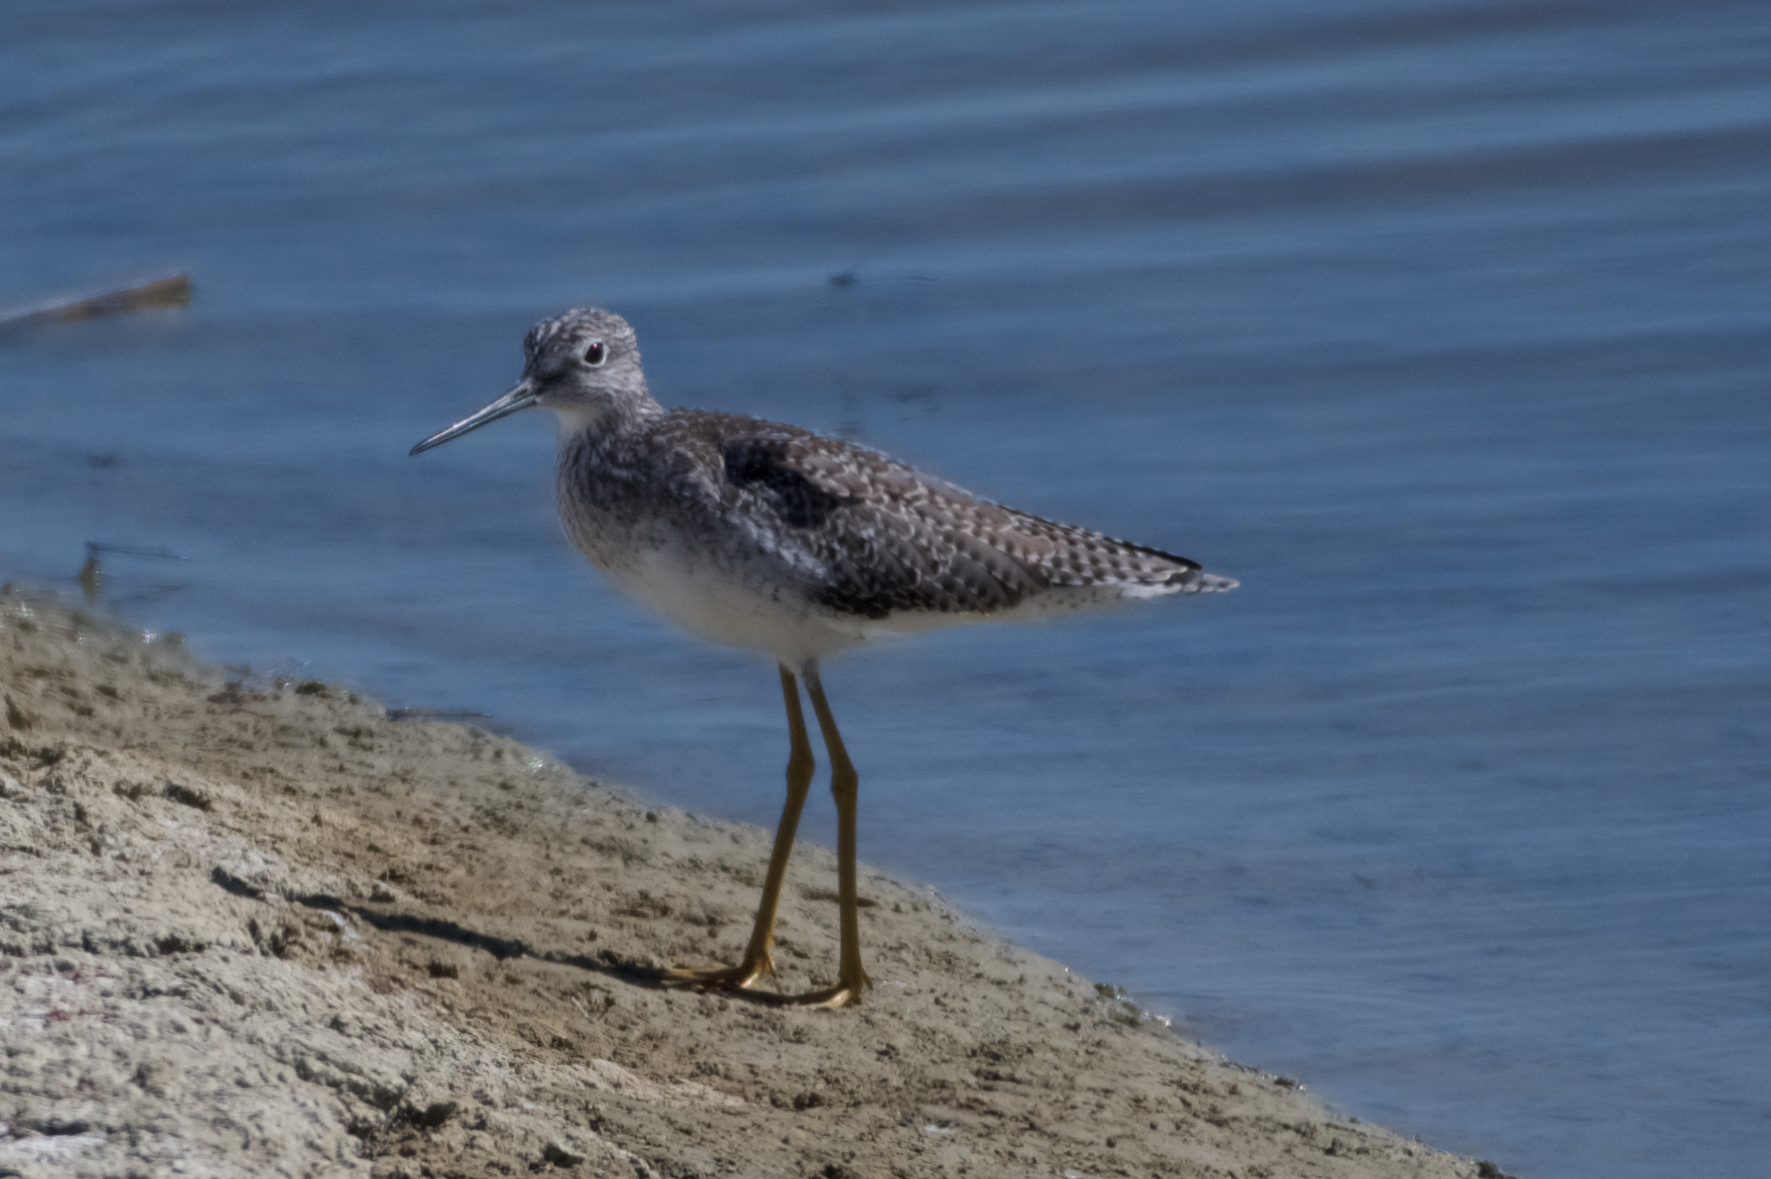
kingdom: Animalia
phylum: Chordata
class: Aves
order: Charadriiformes
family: Scolopacidae
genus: Tringa
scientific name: Tringa melanoleuca
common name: Greater yellowlegs
